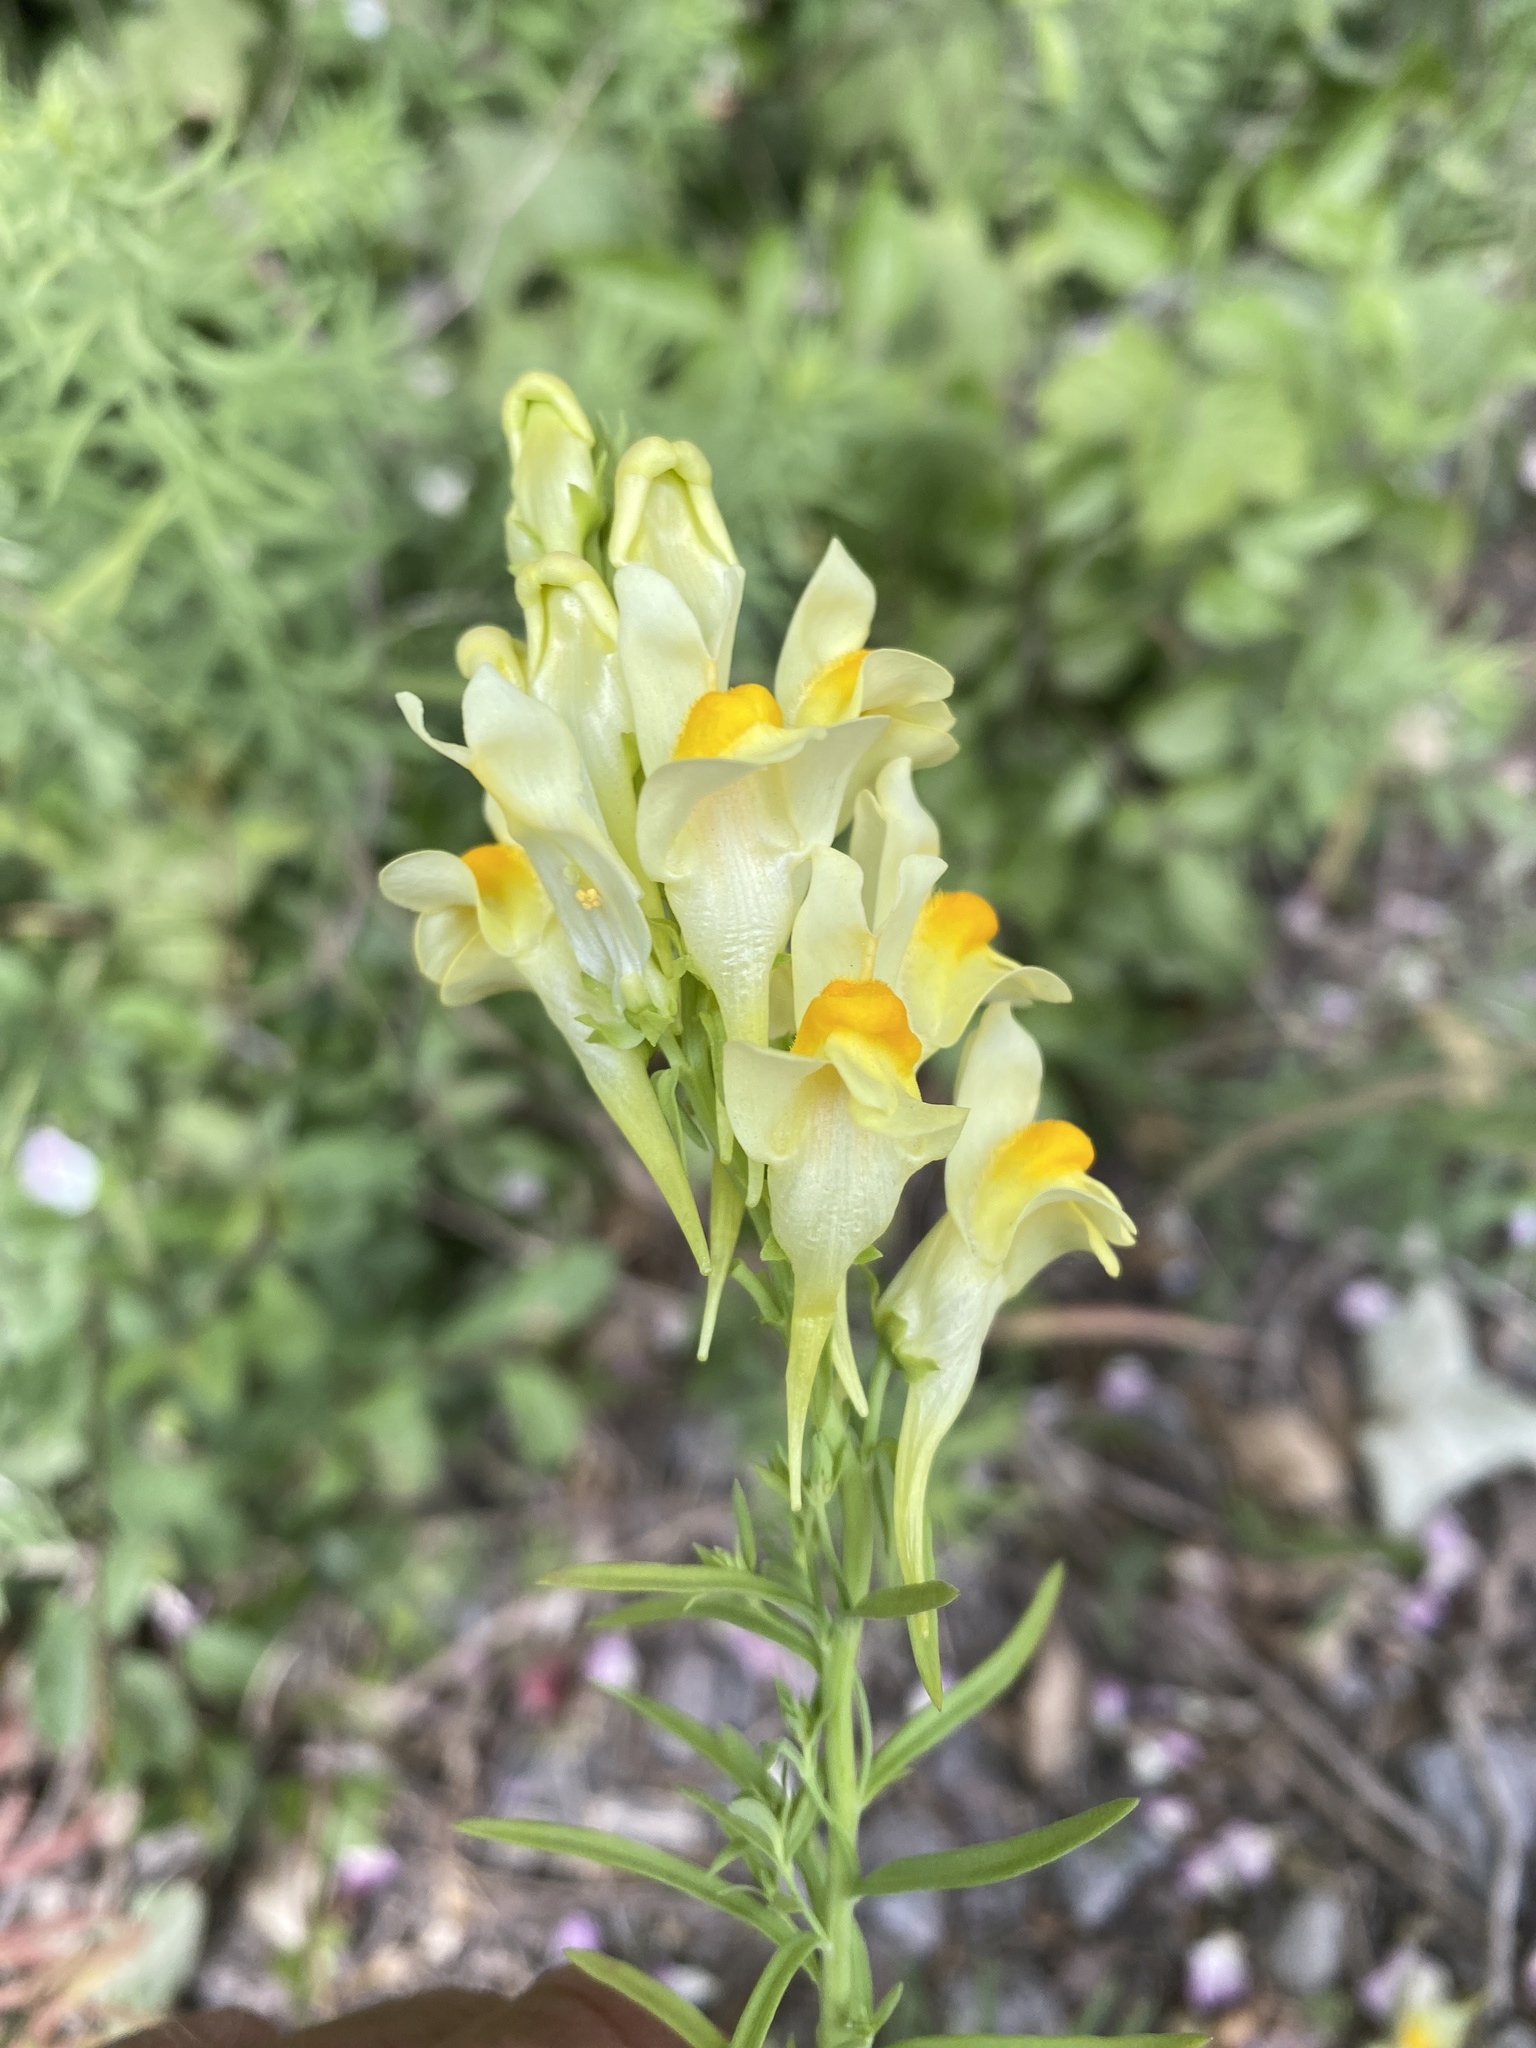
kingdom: Plantae
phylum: Tracheophyta
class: Magnoliopsida
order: Lamiales
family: Plantaginaceae
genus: Linaria
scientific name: Linaria vulgaris
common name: Butter and eggs
